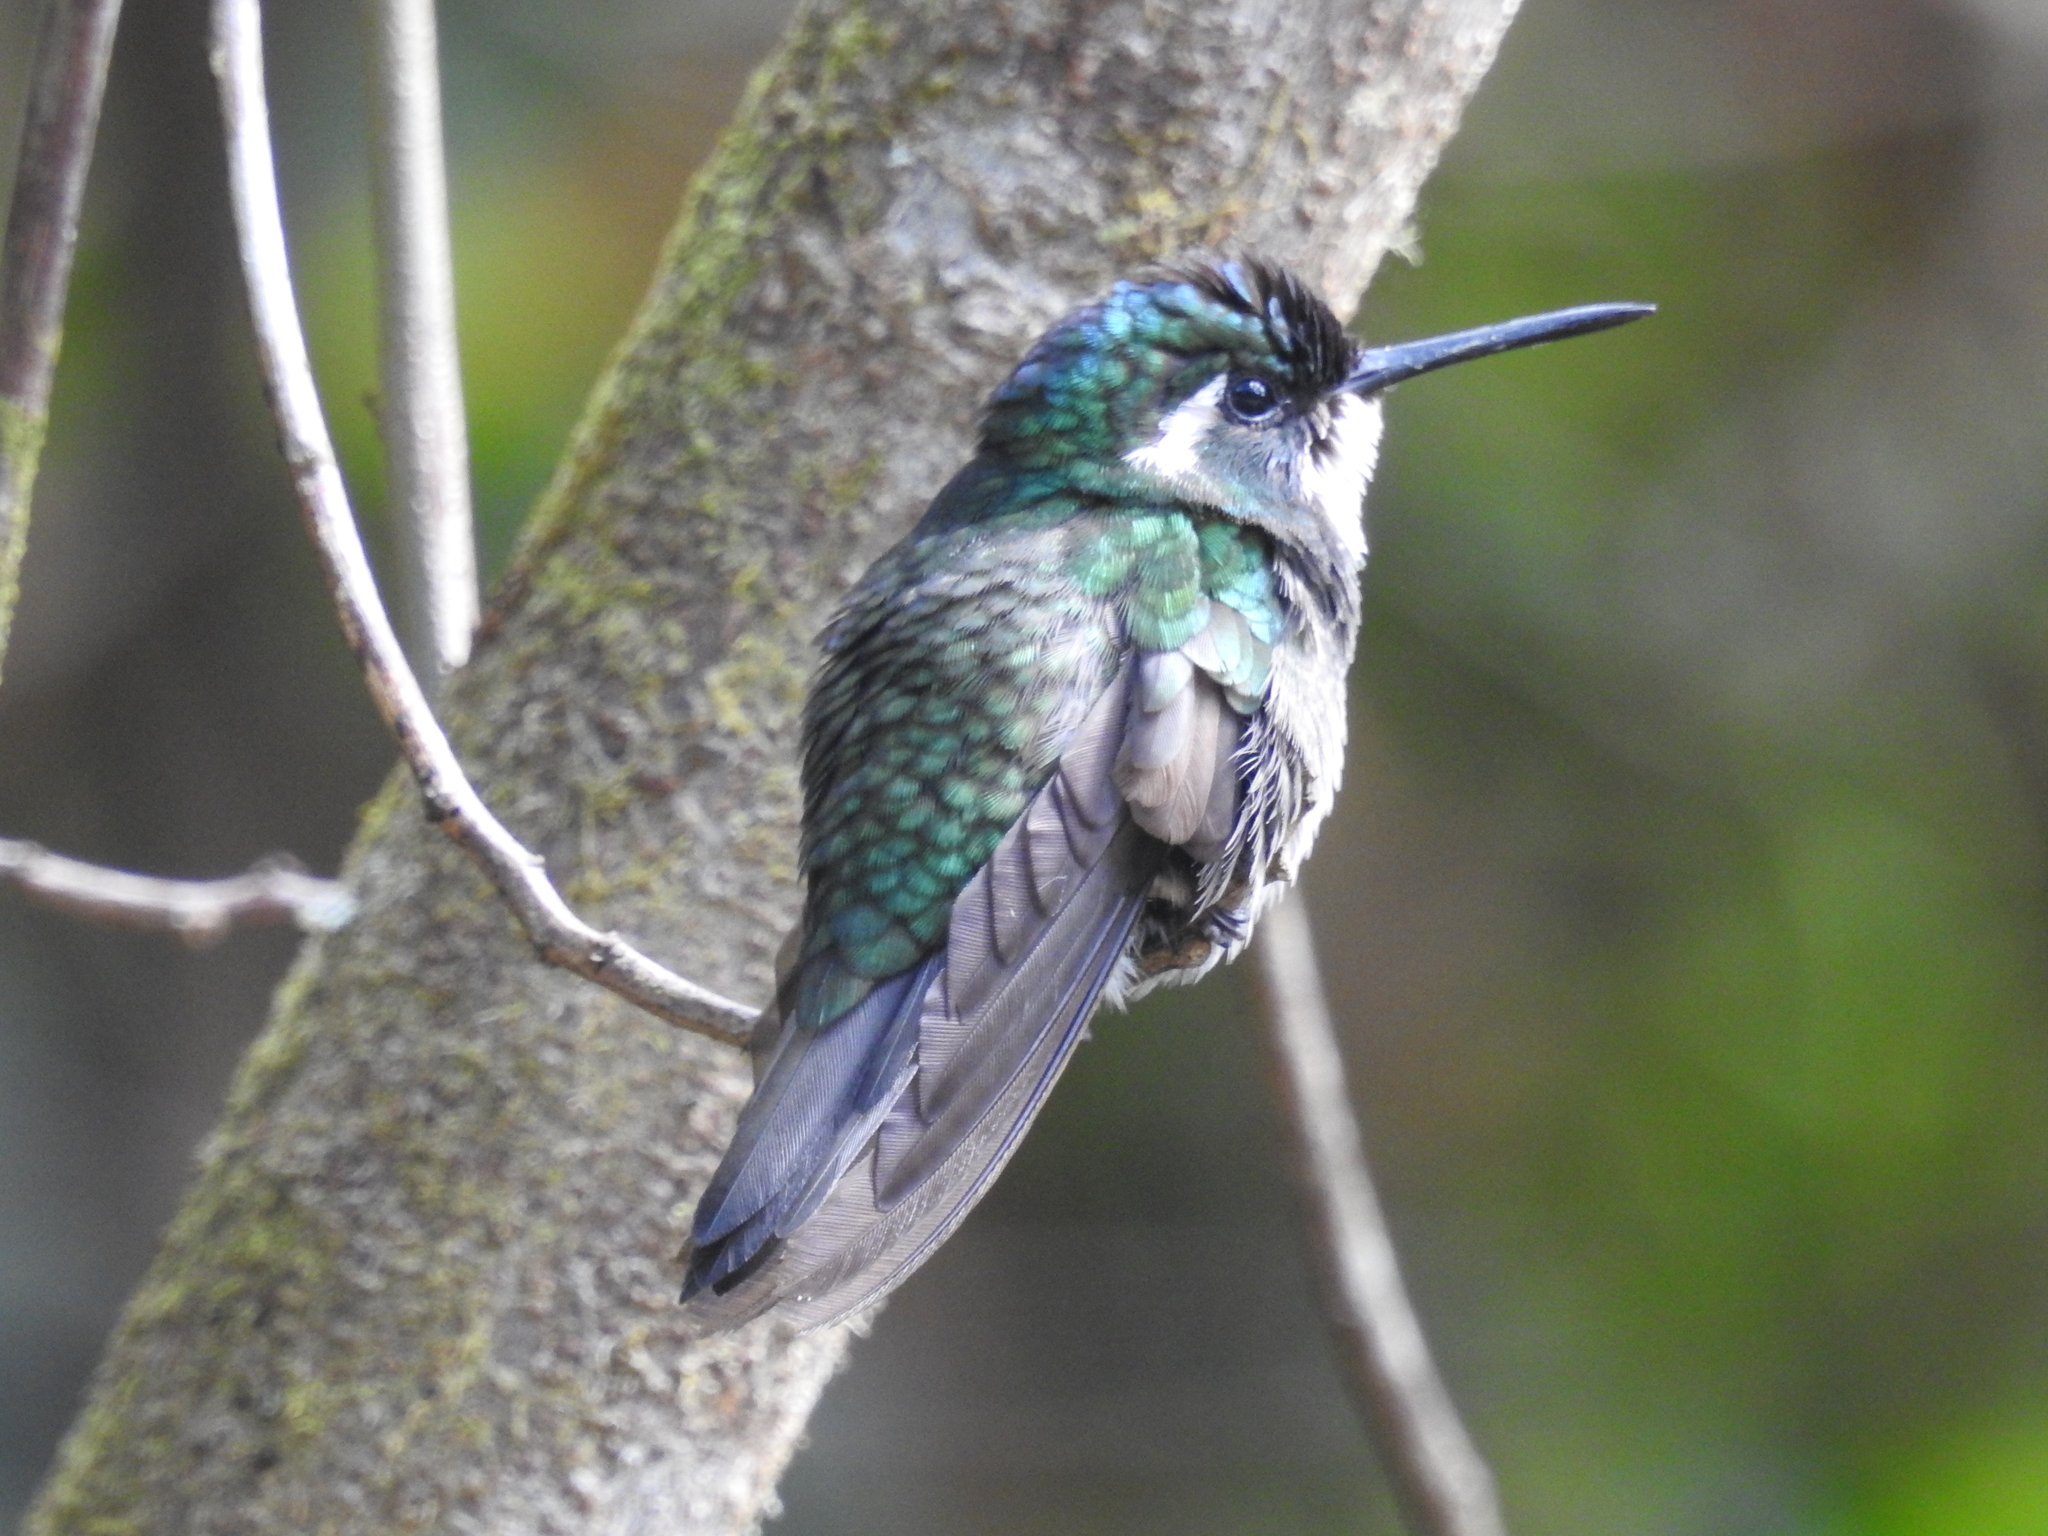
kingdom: Animalia
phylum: Chordata
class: Aves
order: Apodiformes
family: Trochilidae
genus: Lampornis
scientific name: Lampornis castaneoventris
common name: White-throated mountain-gem
